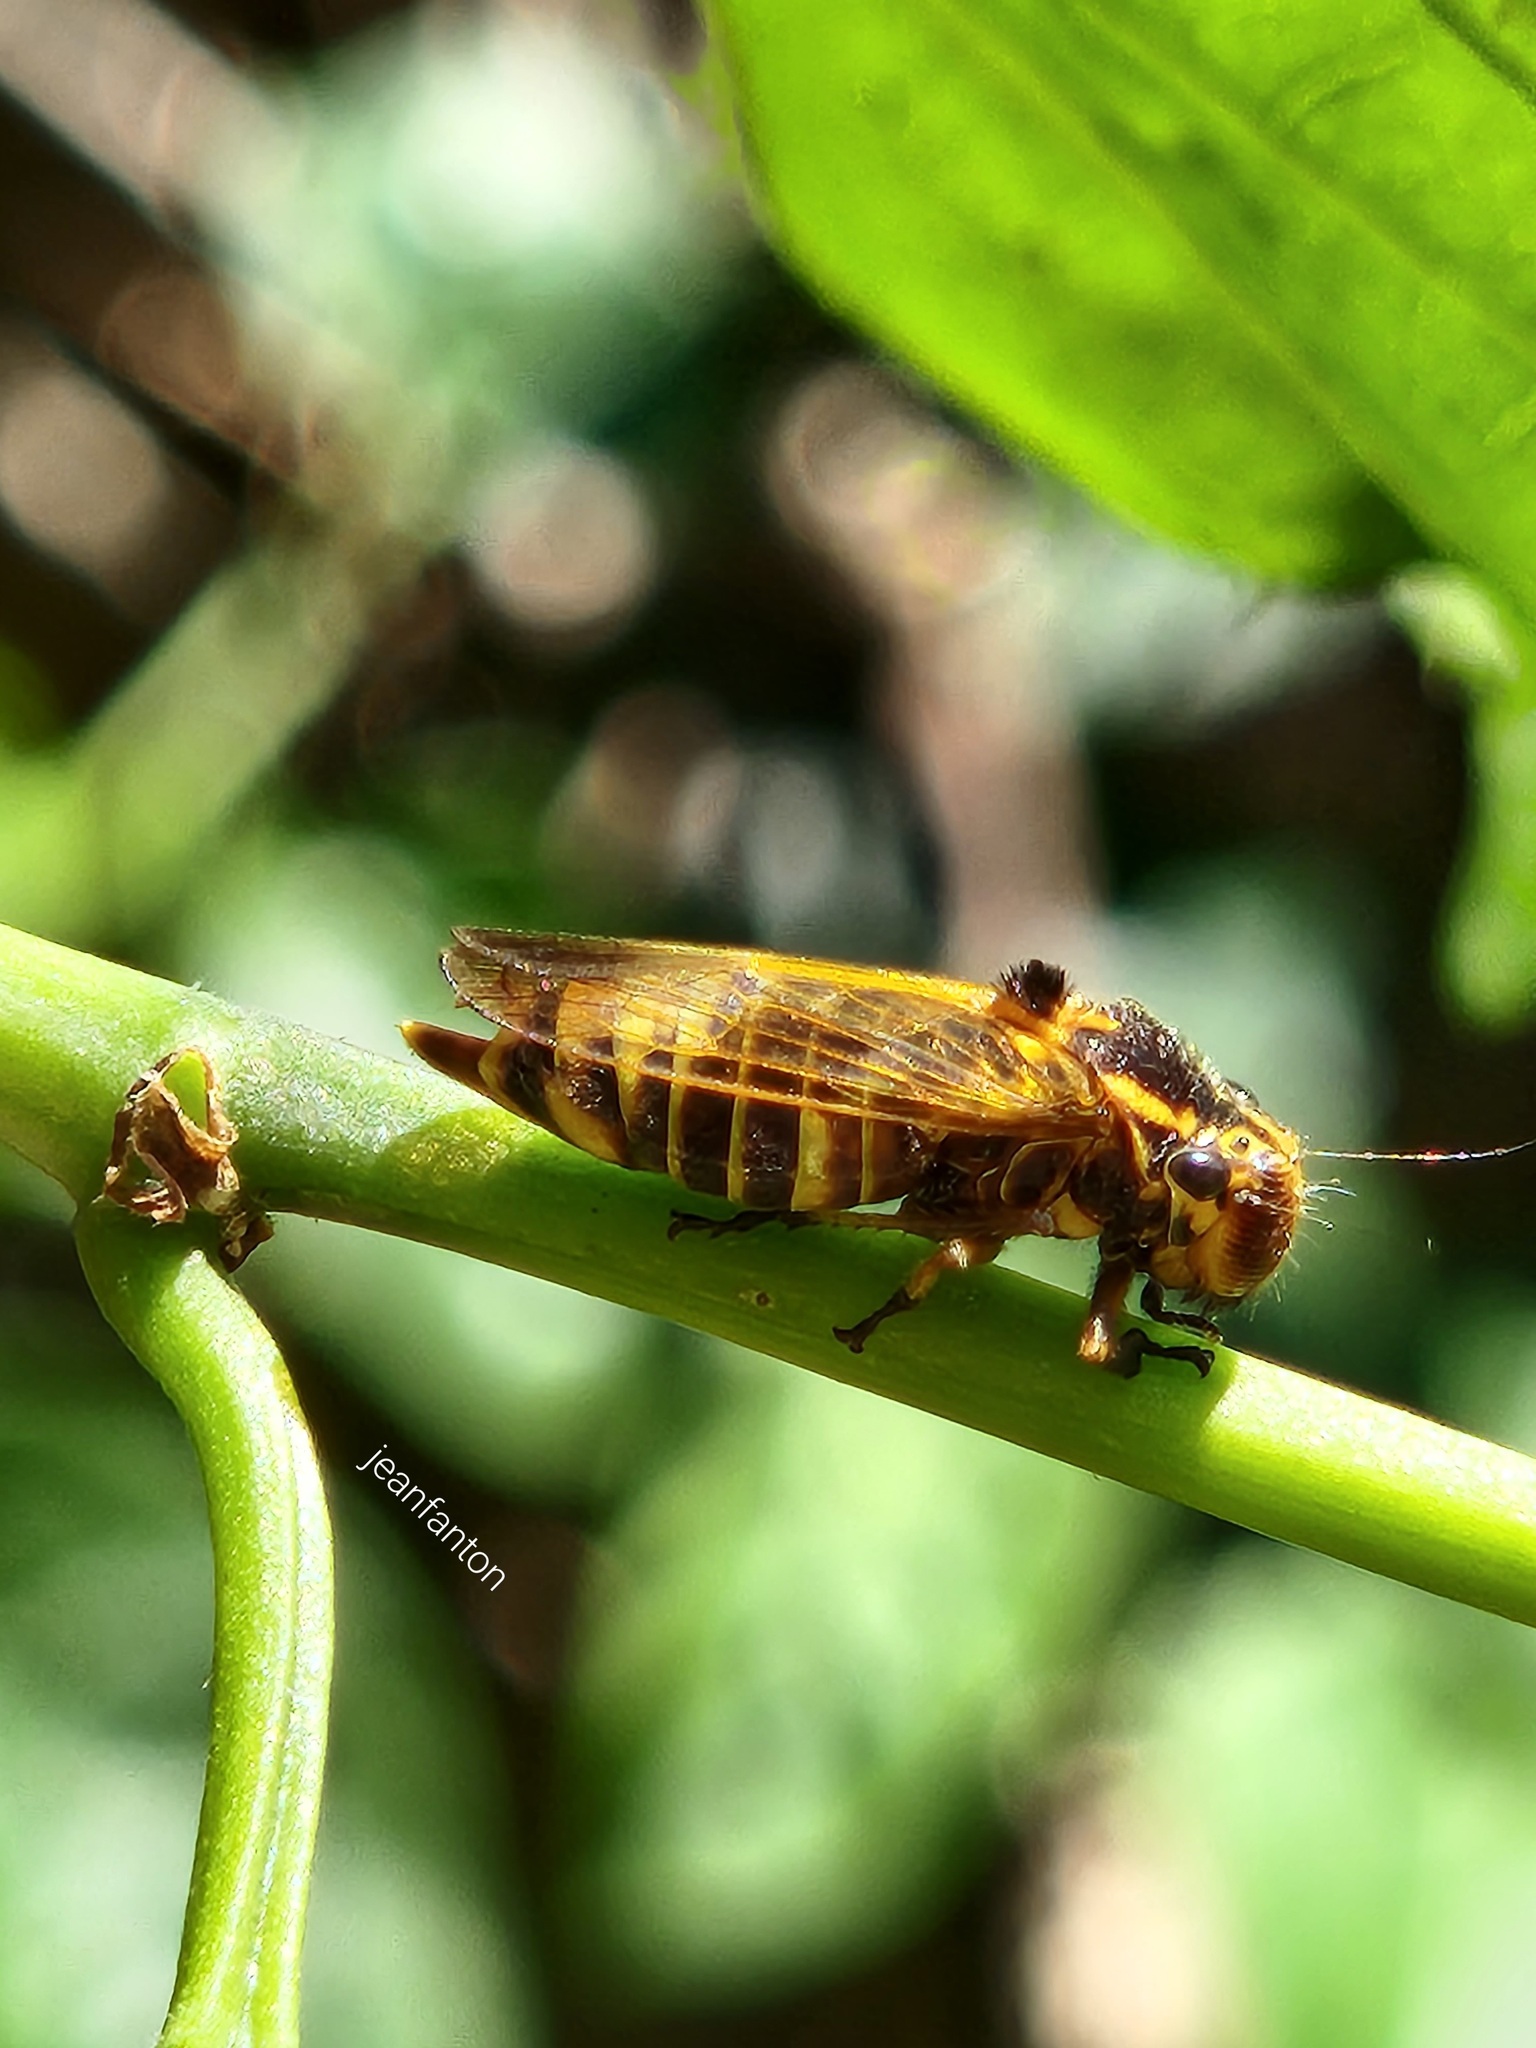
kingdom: Animalia
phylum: Arthropoda
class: Insecta
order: Hemiptera
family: Cicadellidae
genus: Teletusa
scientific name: Teletusa limpida
